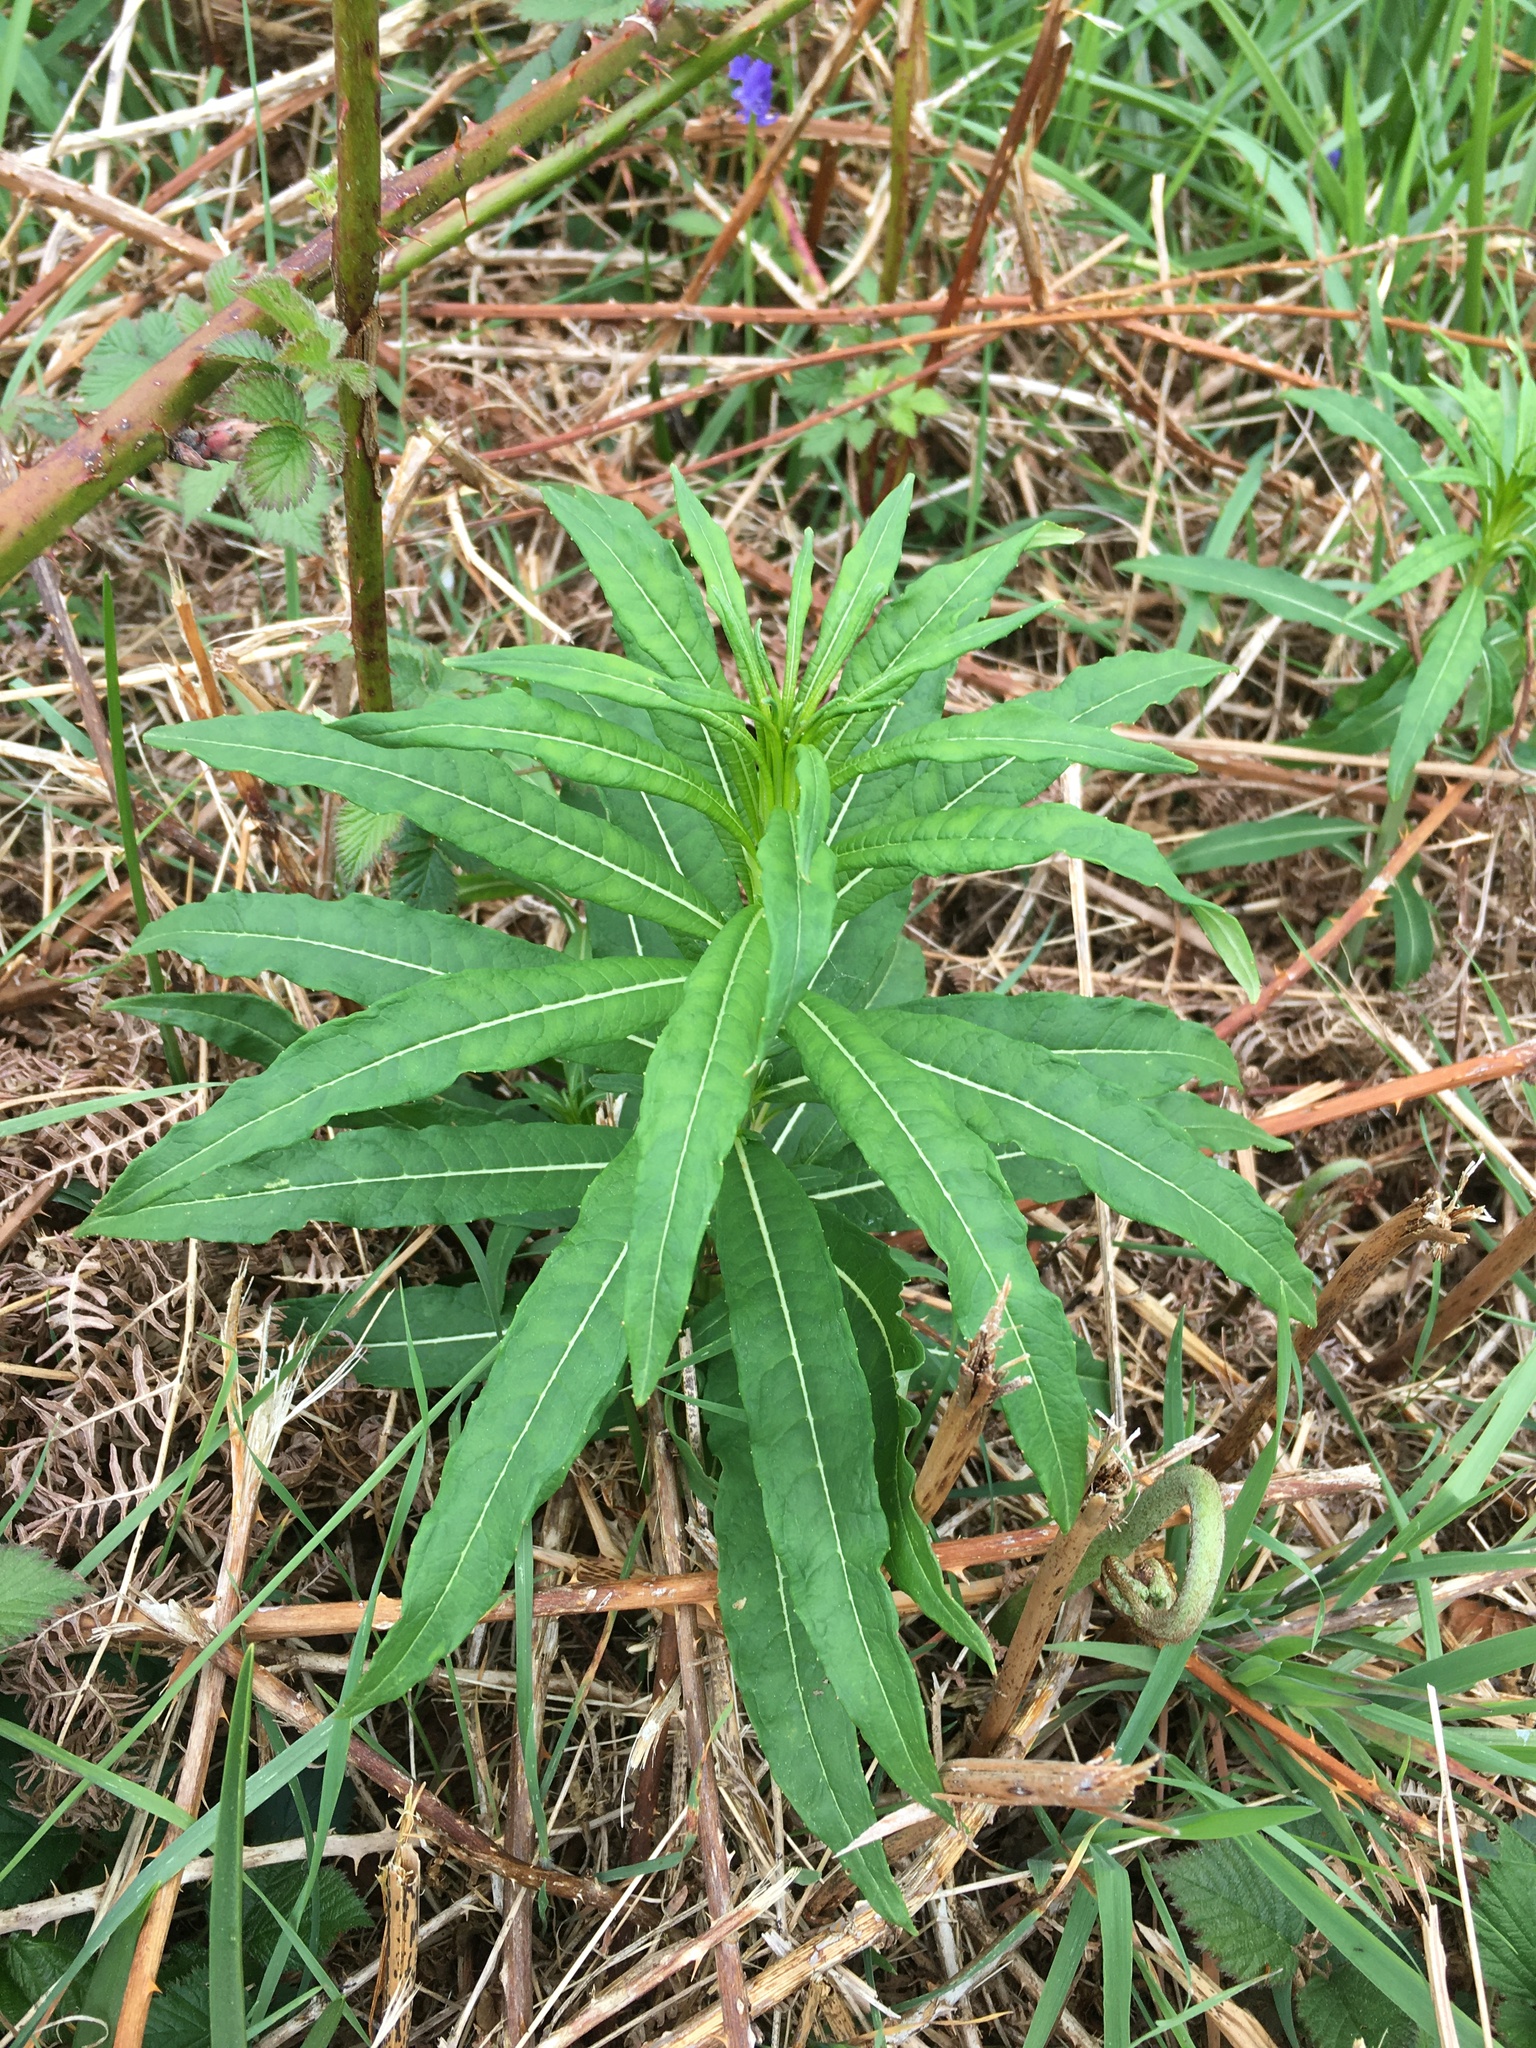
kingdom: Plantae
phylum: Tracheophyta
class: Magnoliopsida
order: Myrtales
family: Onagraceae
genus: Chamaenerion
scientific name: Chamaenerion angustifolium
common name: Fireweed
